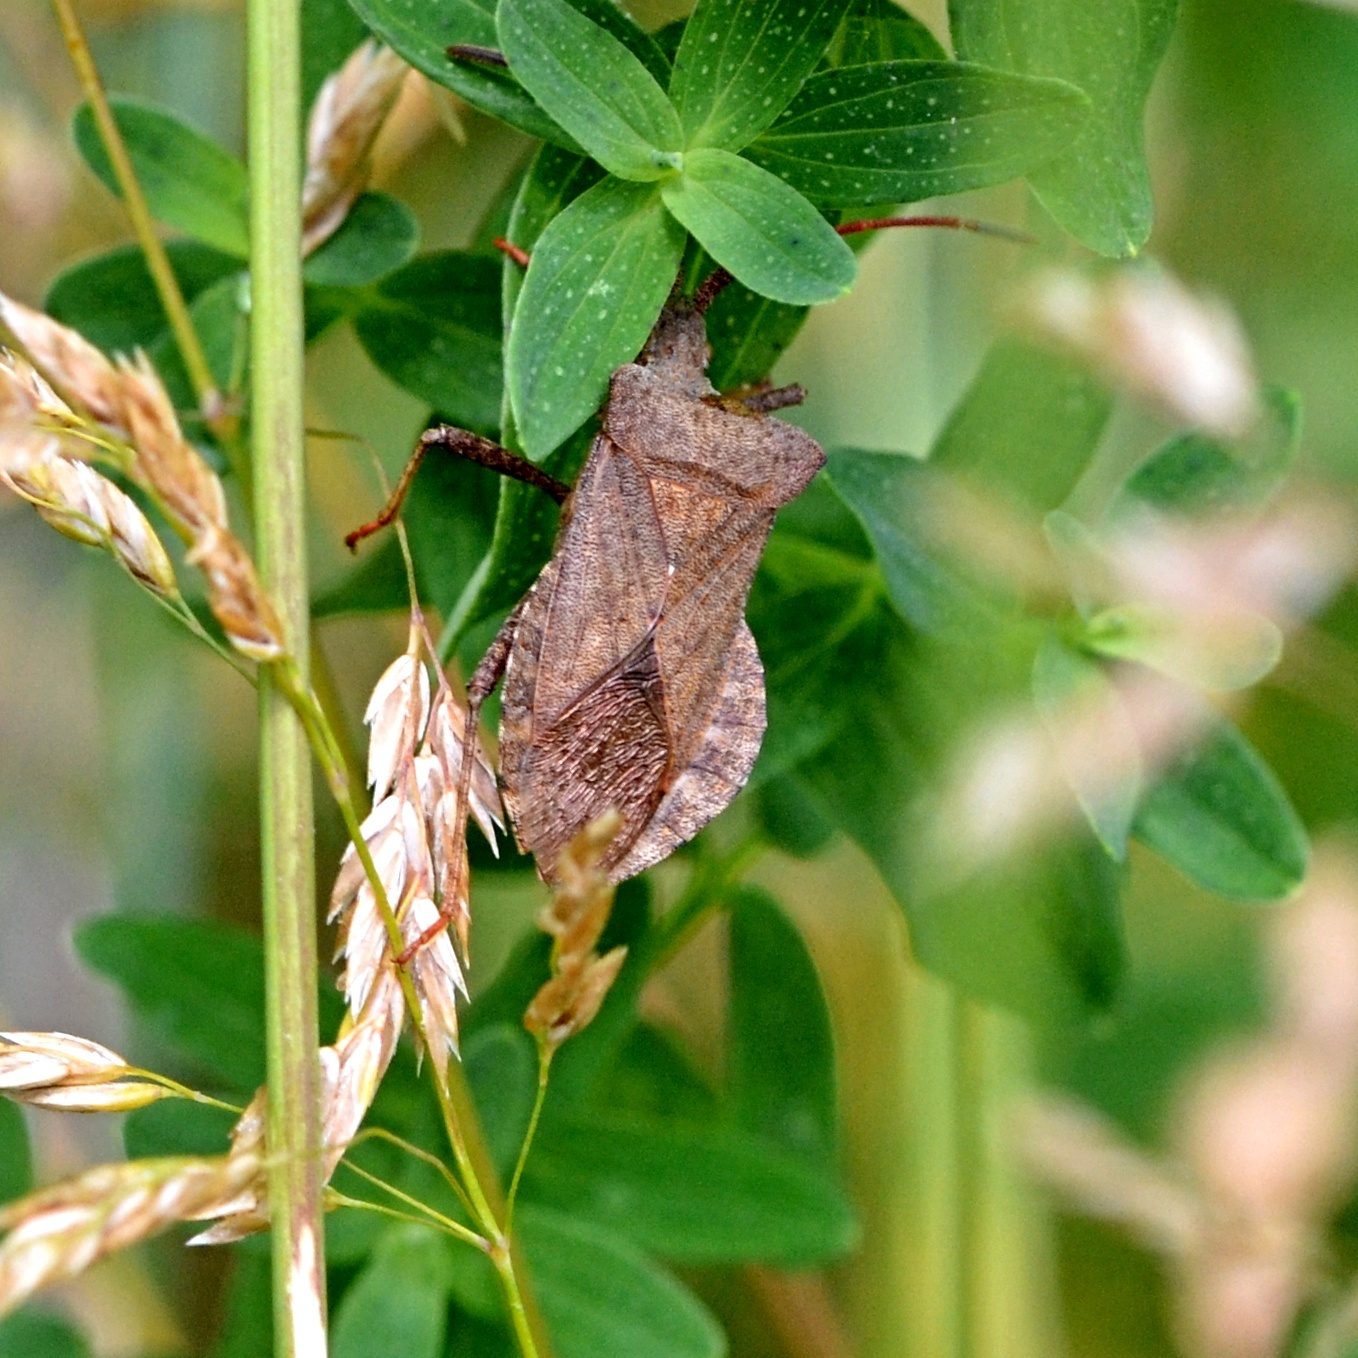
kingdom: Animalia
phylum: Arthropoda
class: Insecta
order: Hemiptera
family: Coreidae
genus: Coreus
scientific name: Coreus marginatus
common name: Dock bug
